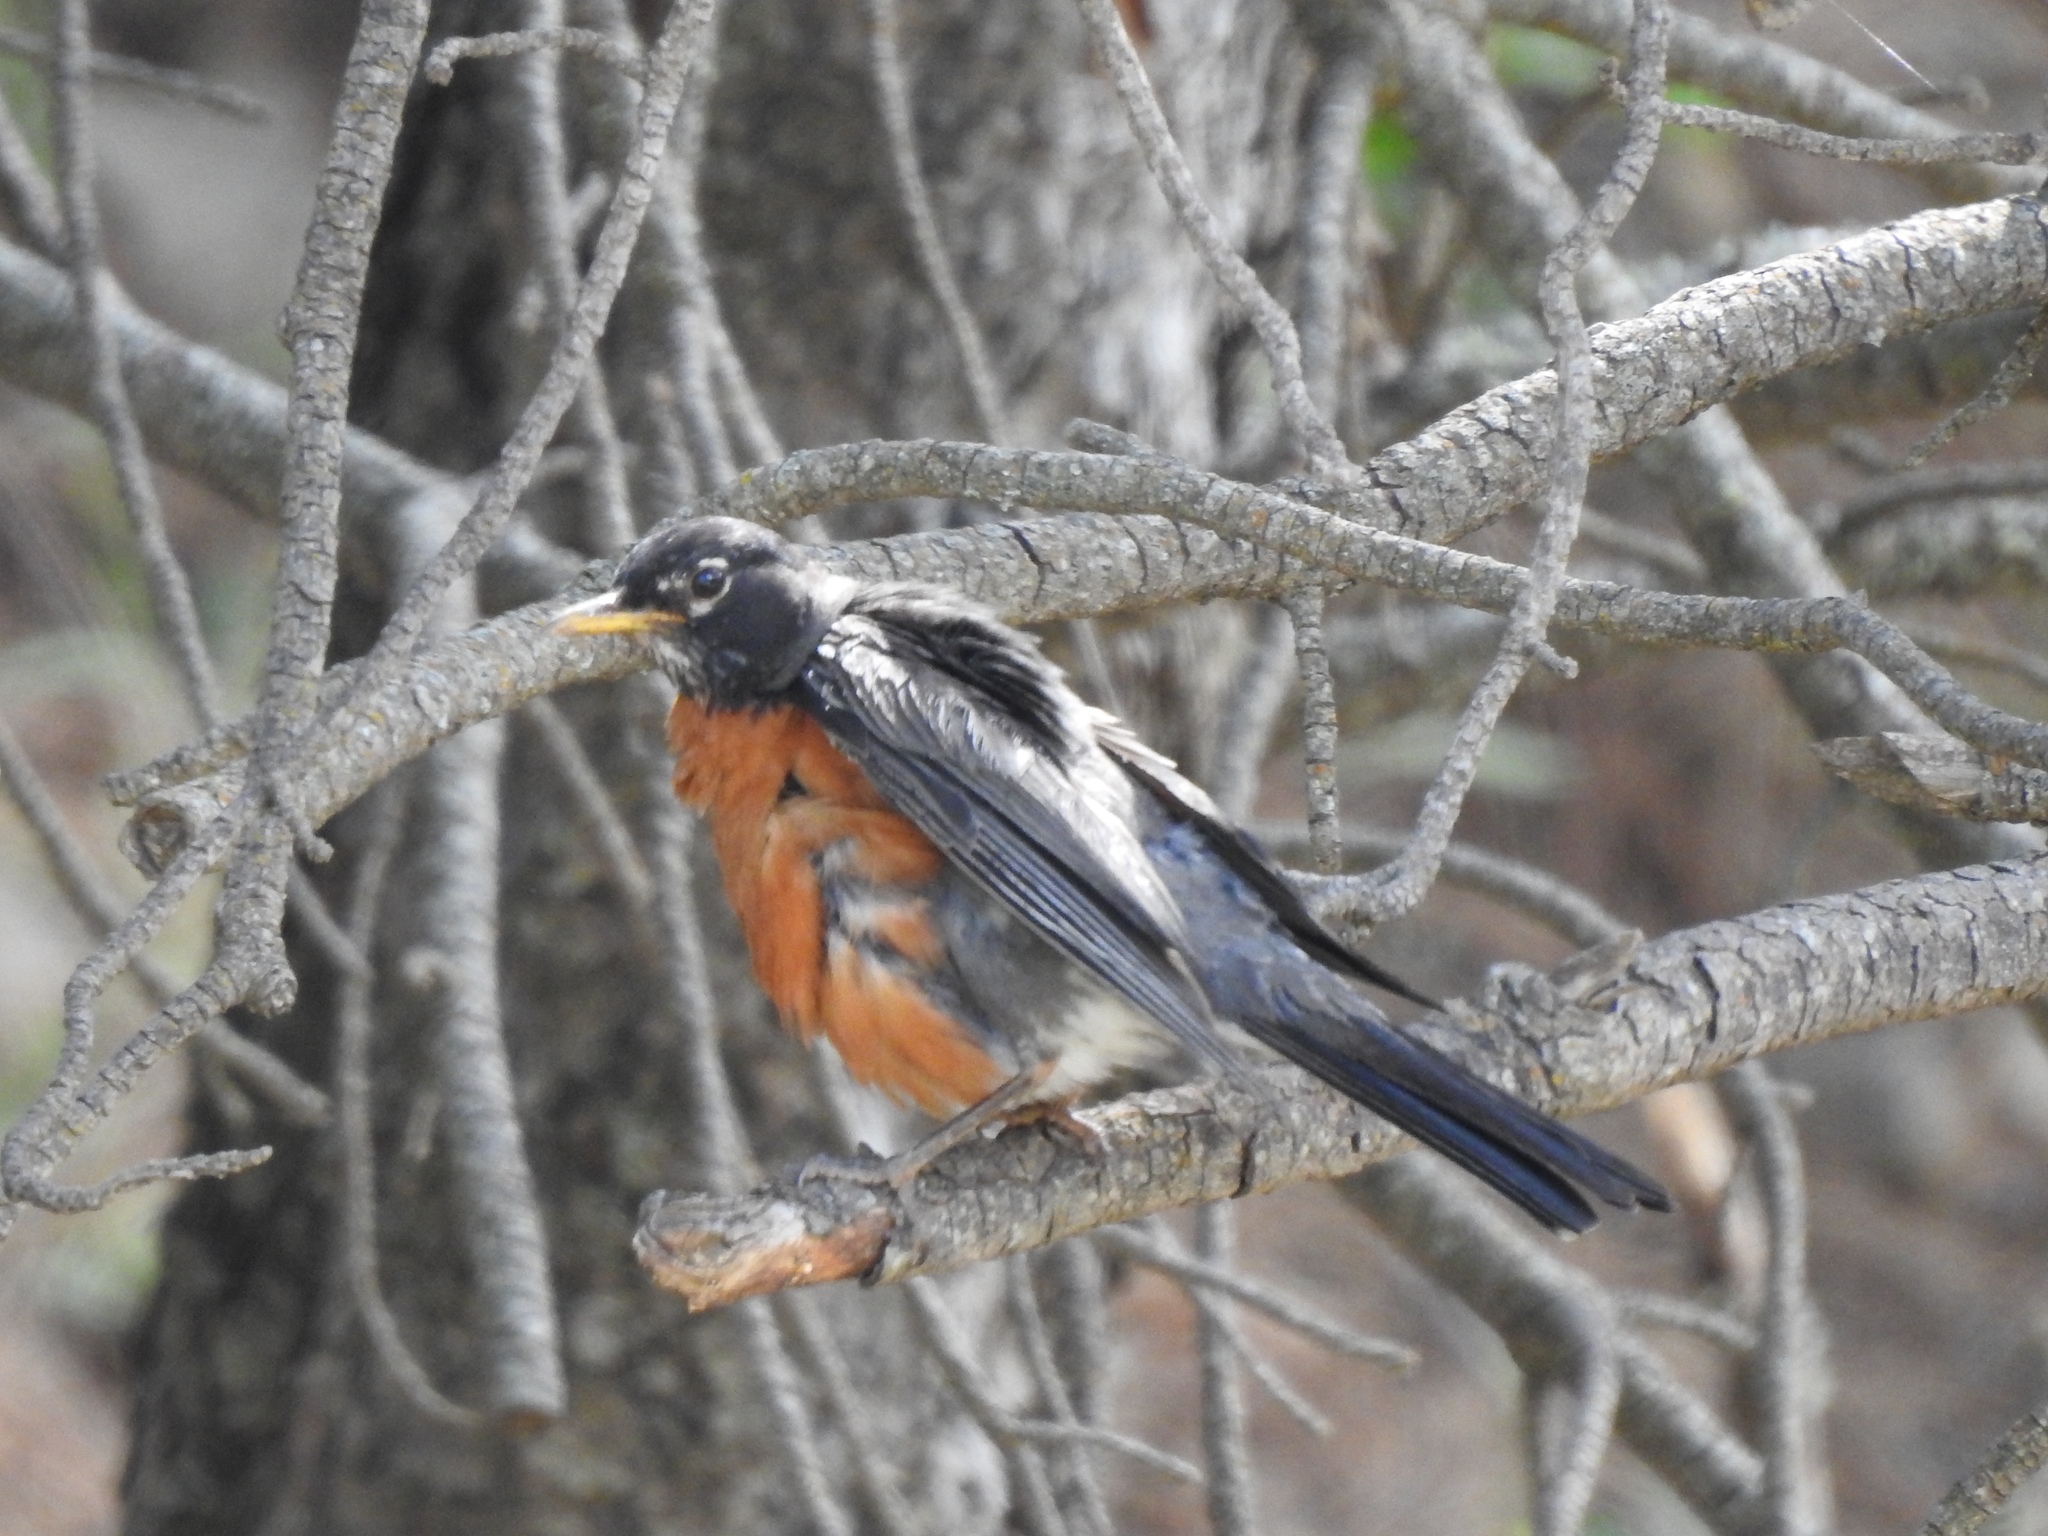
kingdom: Animalia
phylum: Chordata
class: Aves
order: Passeriformes
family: Turdidae
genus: Turdus
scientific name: Turdus migratorius
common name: American robin
